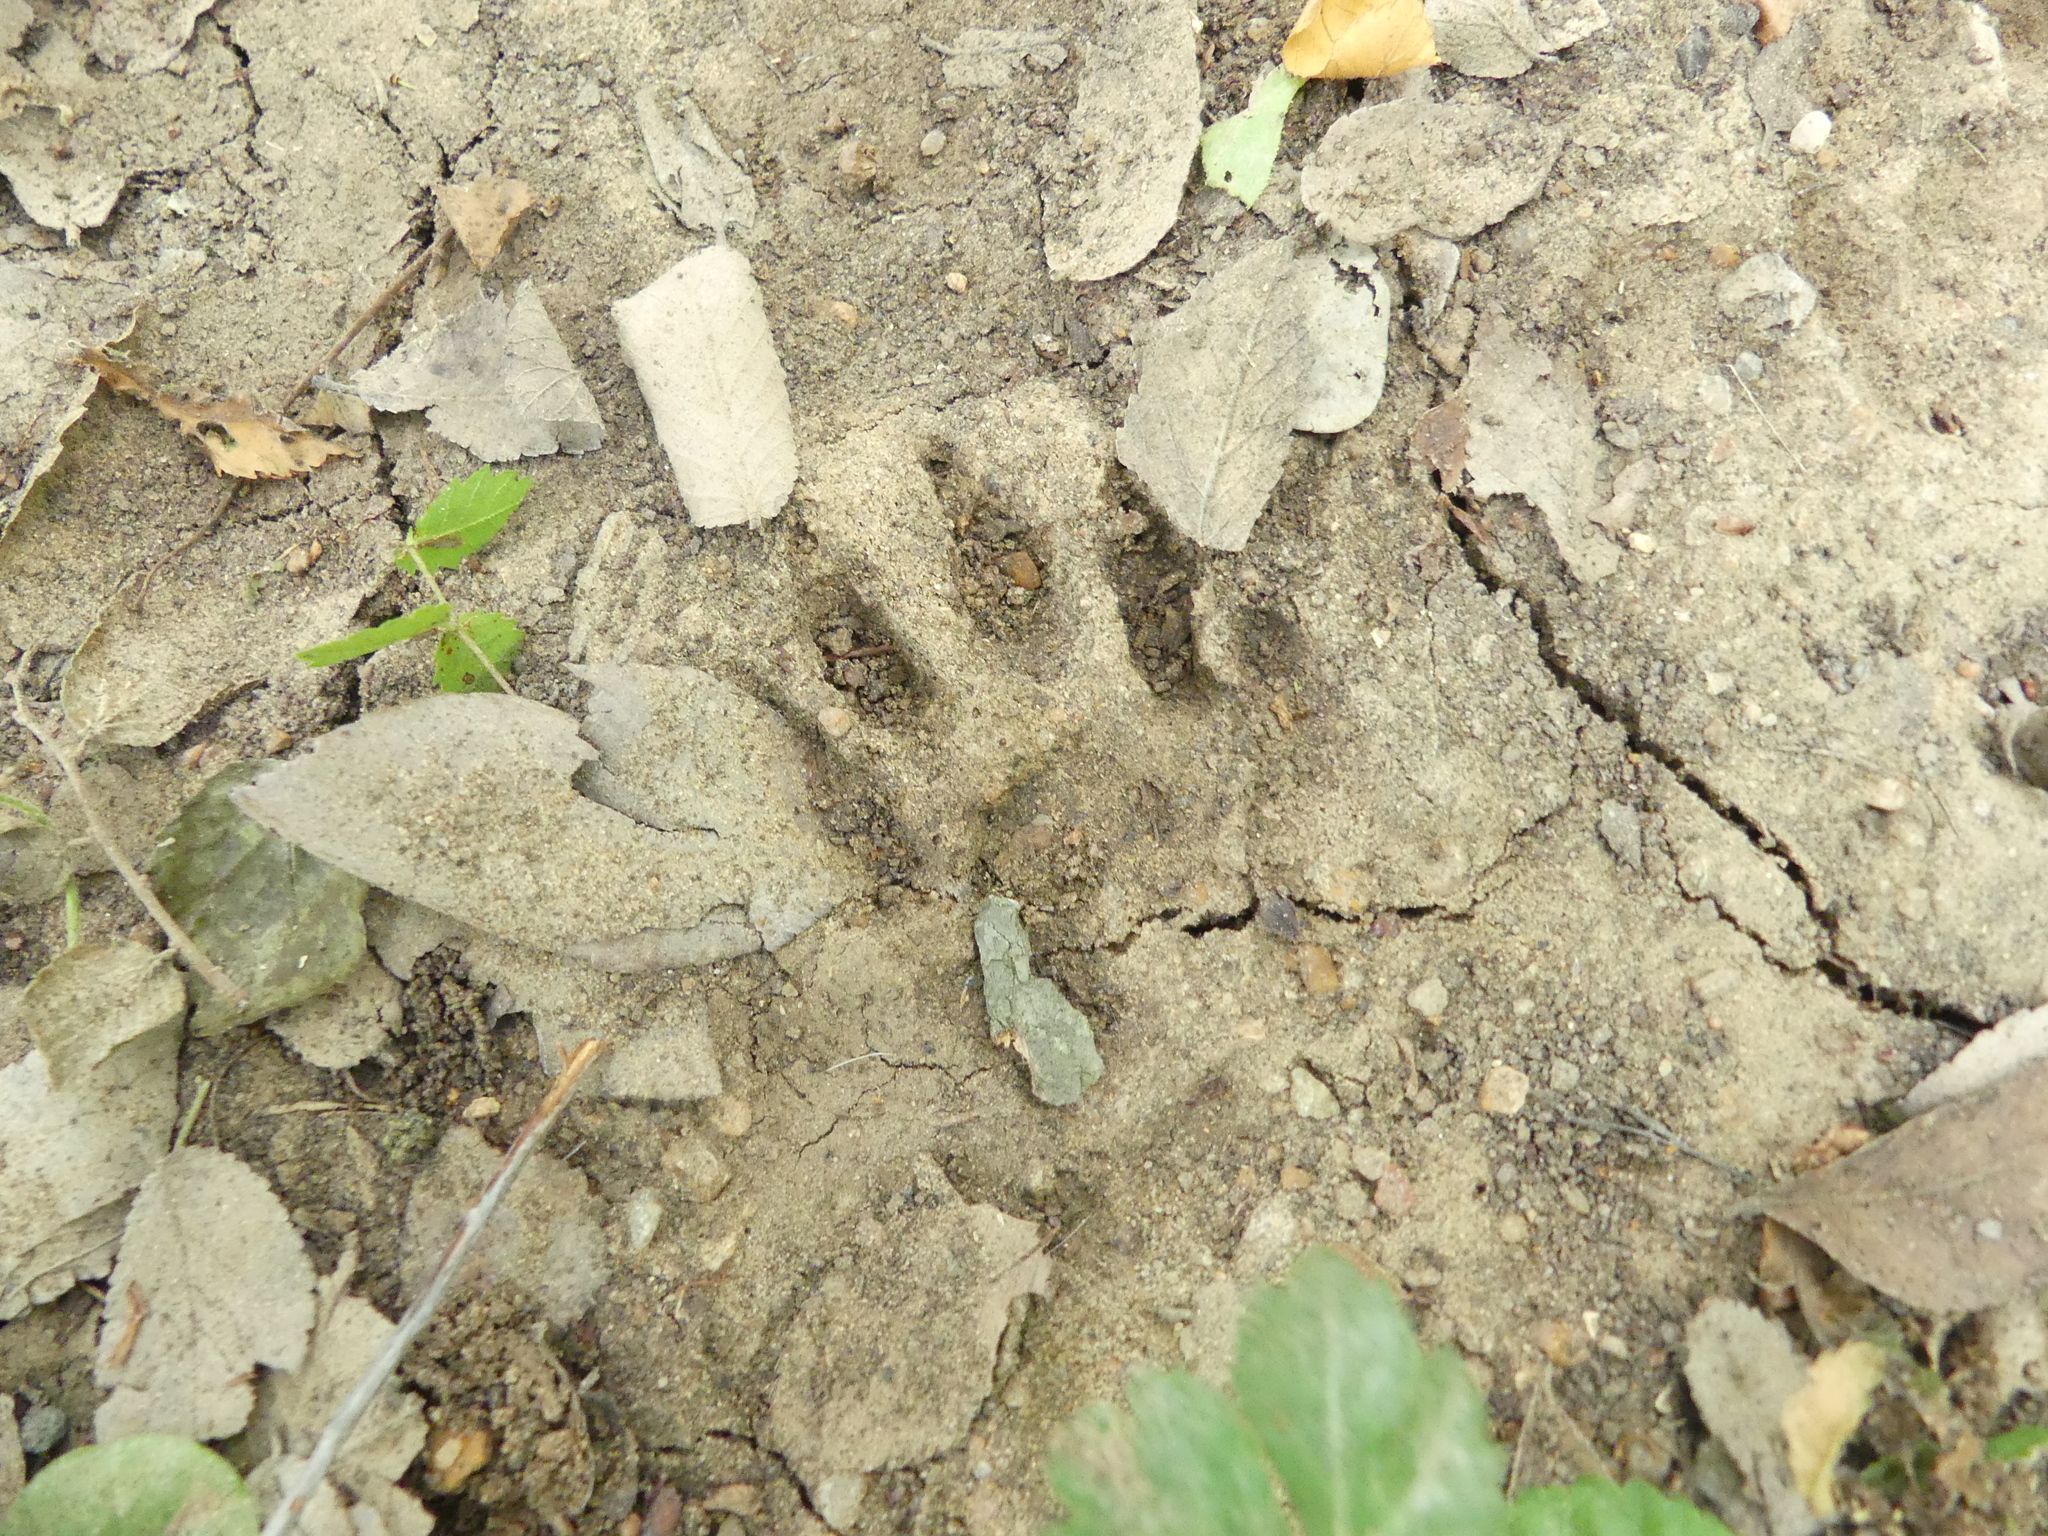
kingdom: Animalia
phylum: Chordata
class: Mammalia
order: Carnivora
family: Procyonidae
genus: Procyon
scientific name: Procyon lotor
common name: Raccoon
